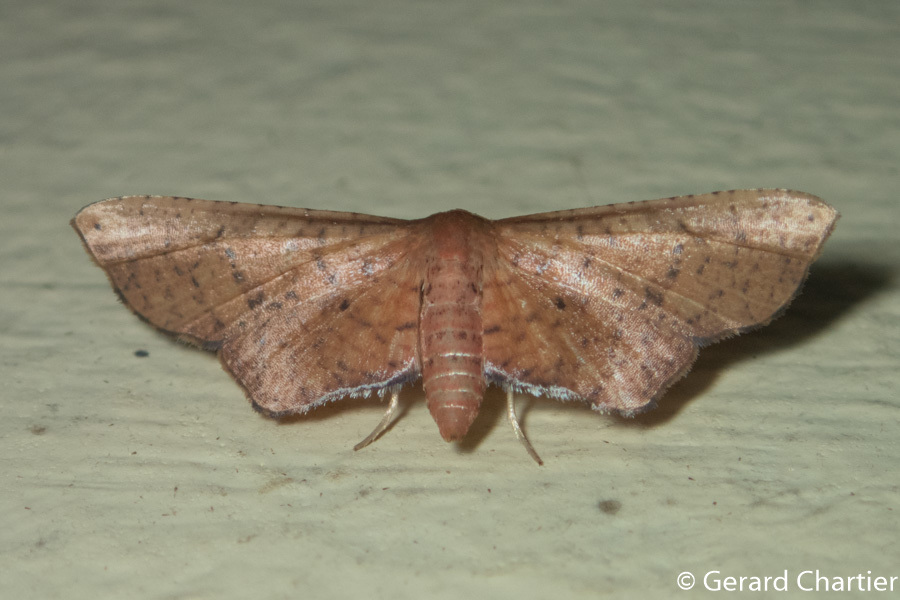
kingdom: Animalia
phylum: Arthropoda
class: Insecta
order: Lepidoptera
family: Thyrididae
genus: Hypolamprus
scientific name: Hypolamprus
